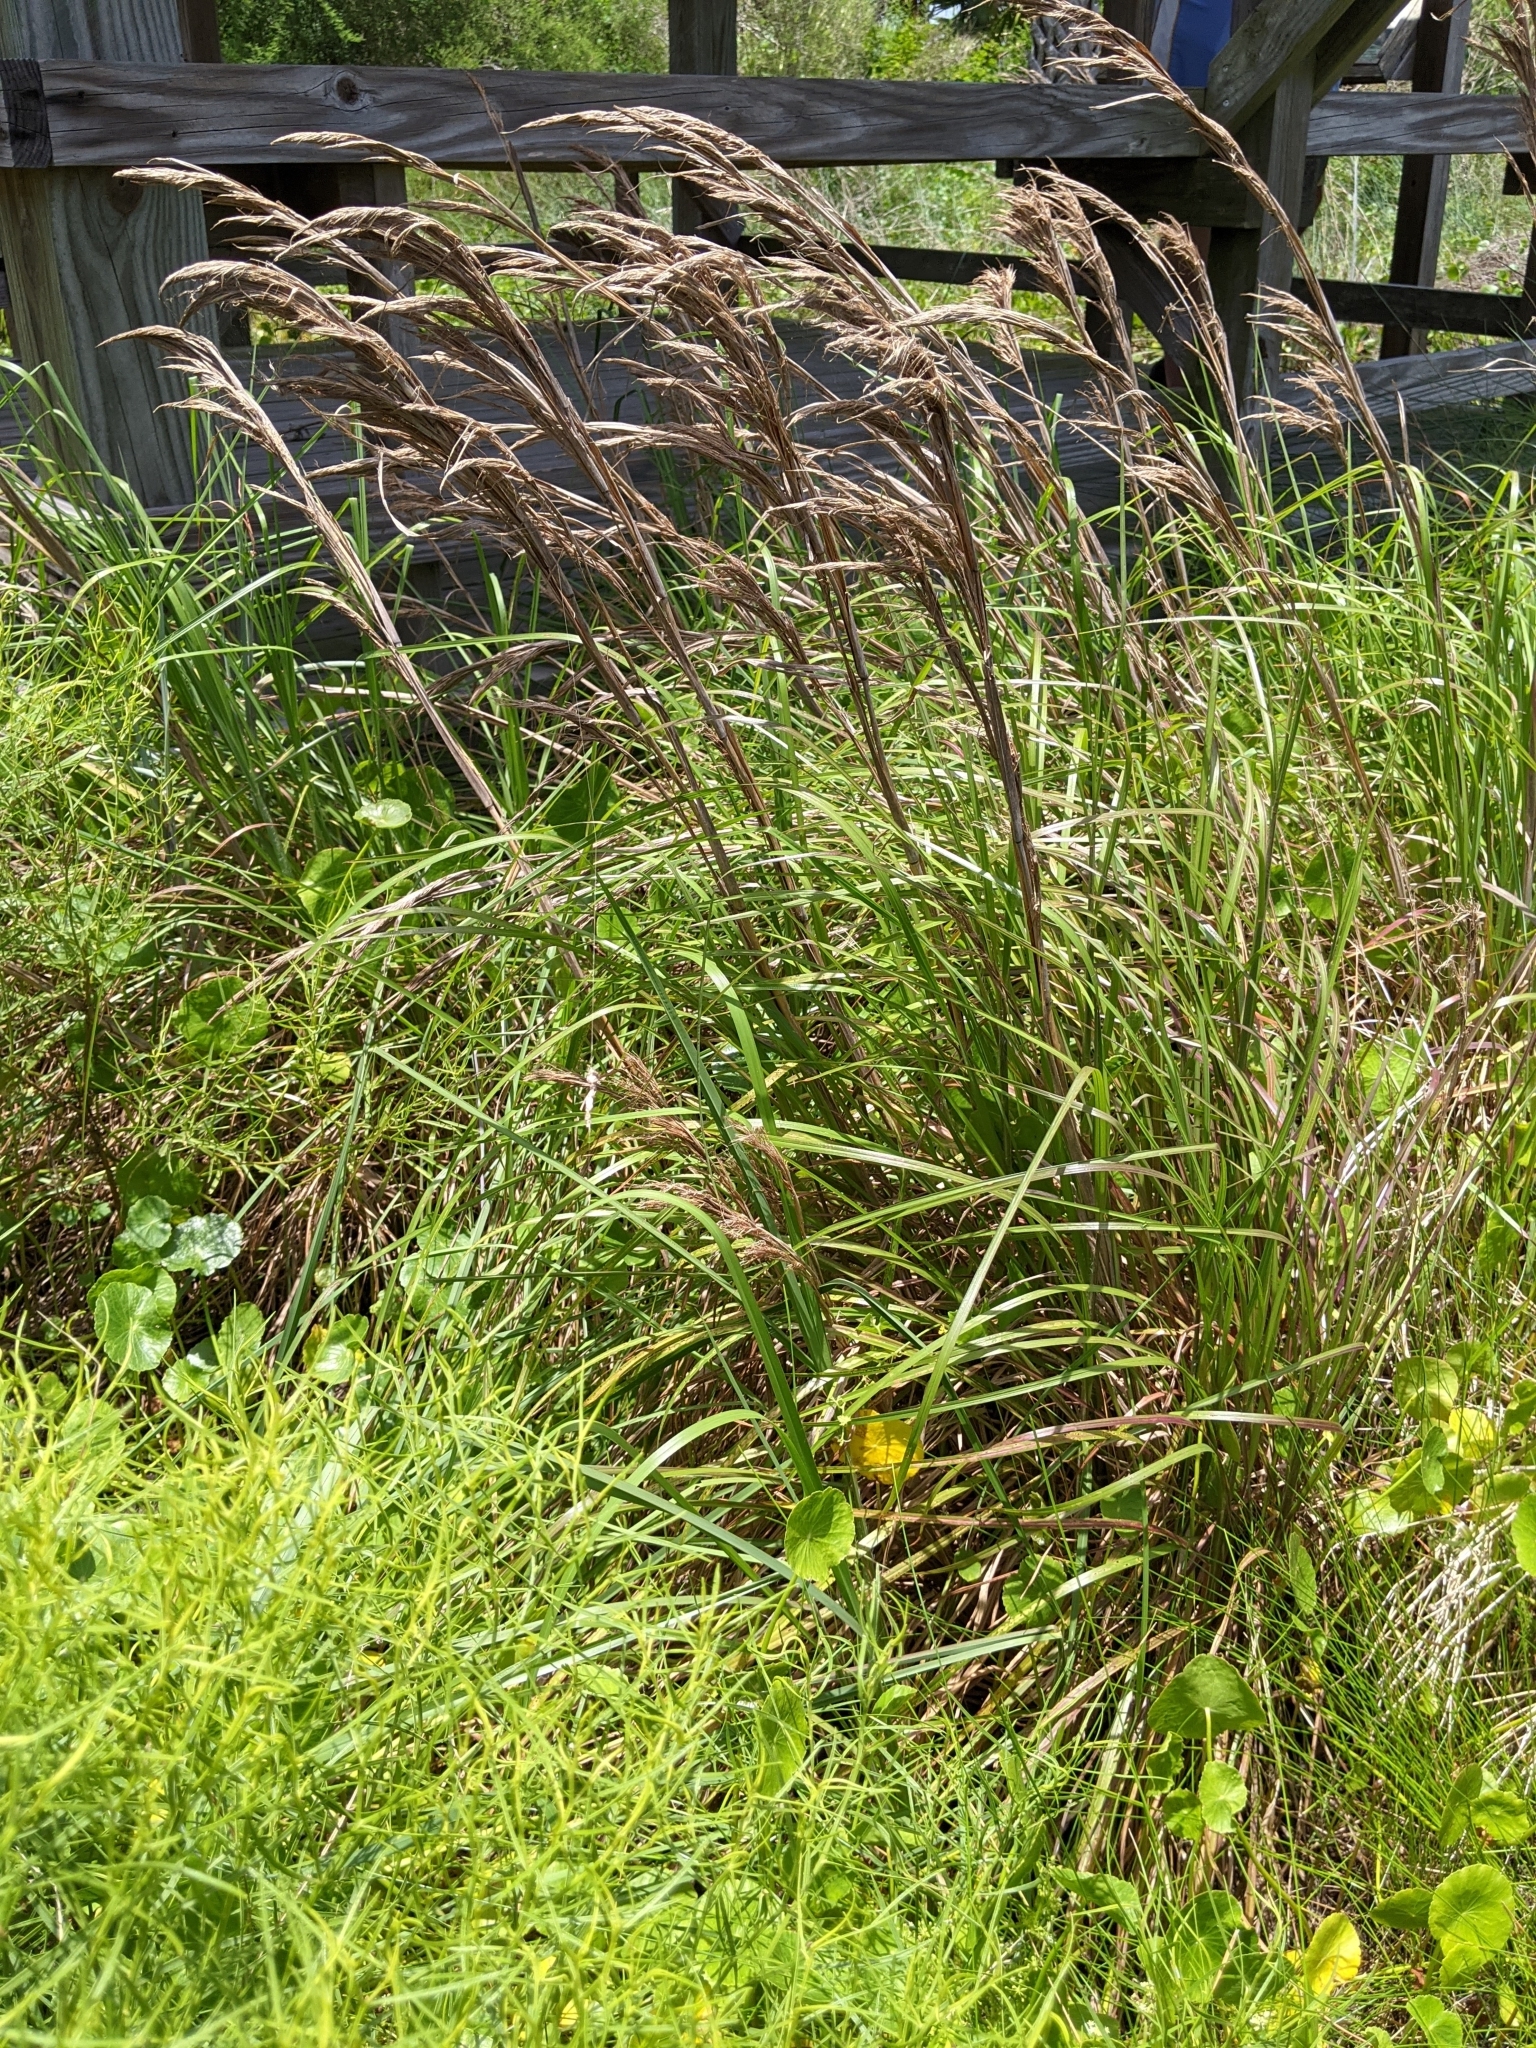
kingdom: Plantae
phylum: Tracheophyta
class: Liliopsida
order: Poales
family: Poaceae
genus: Andropogon
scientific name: Andropogon tenuispatheus
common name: Bushy bluestem
